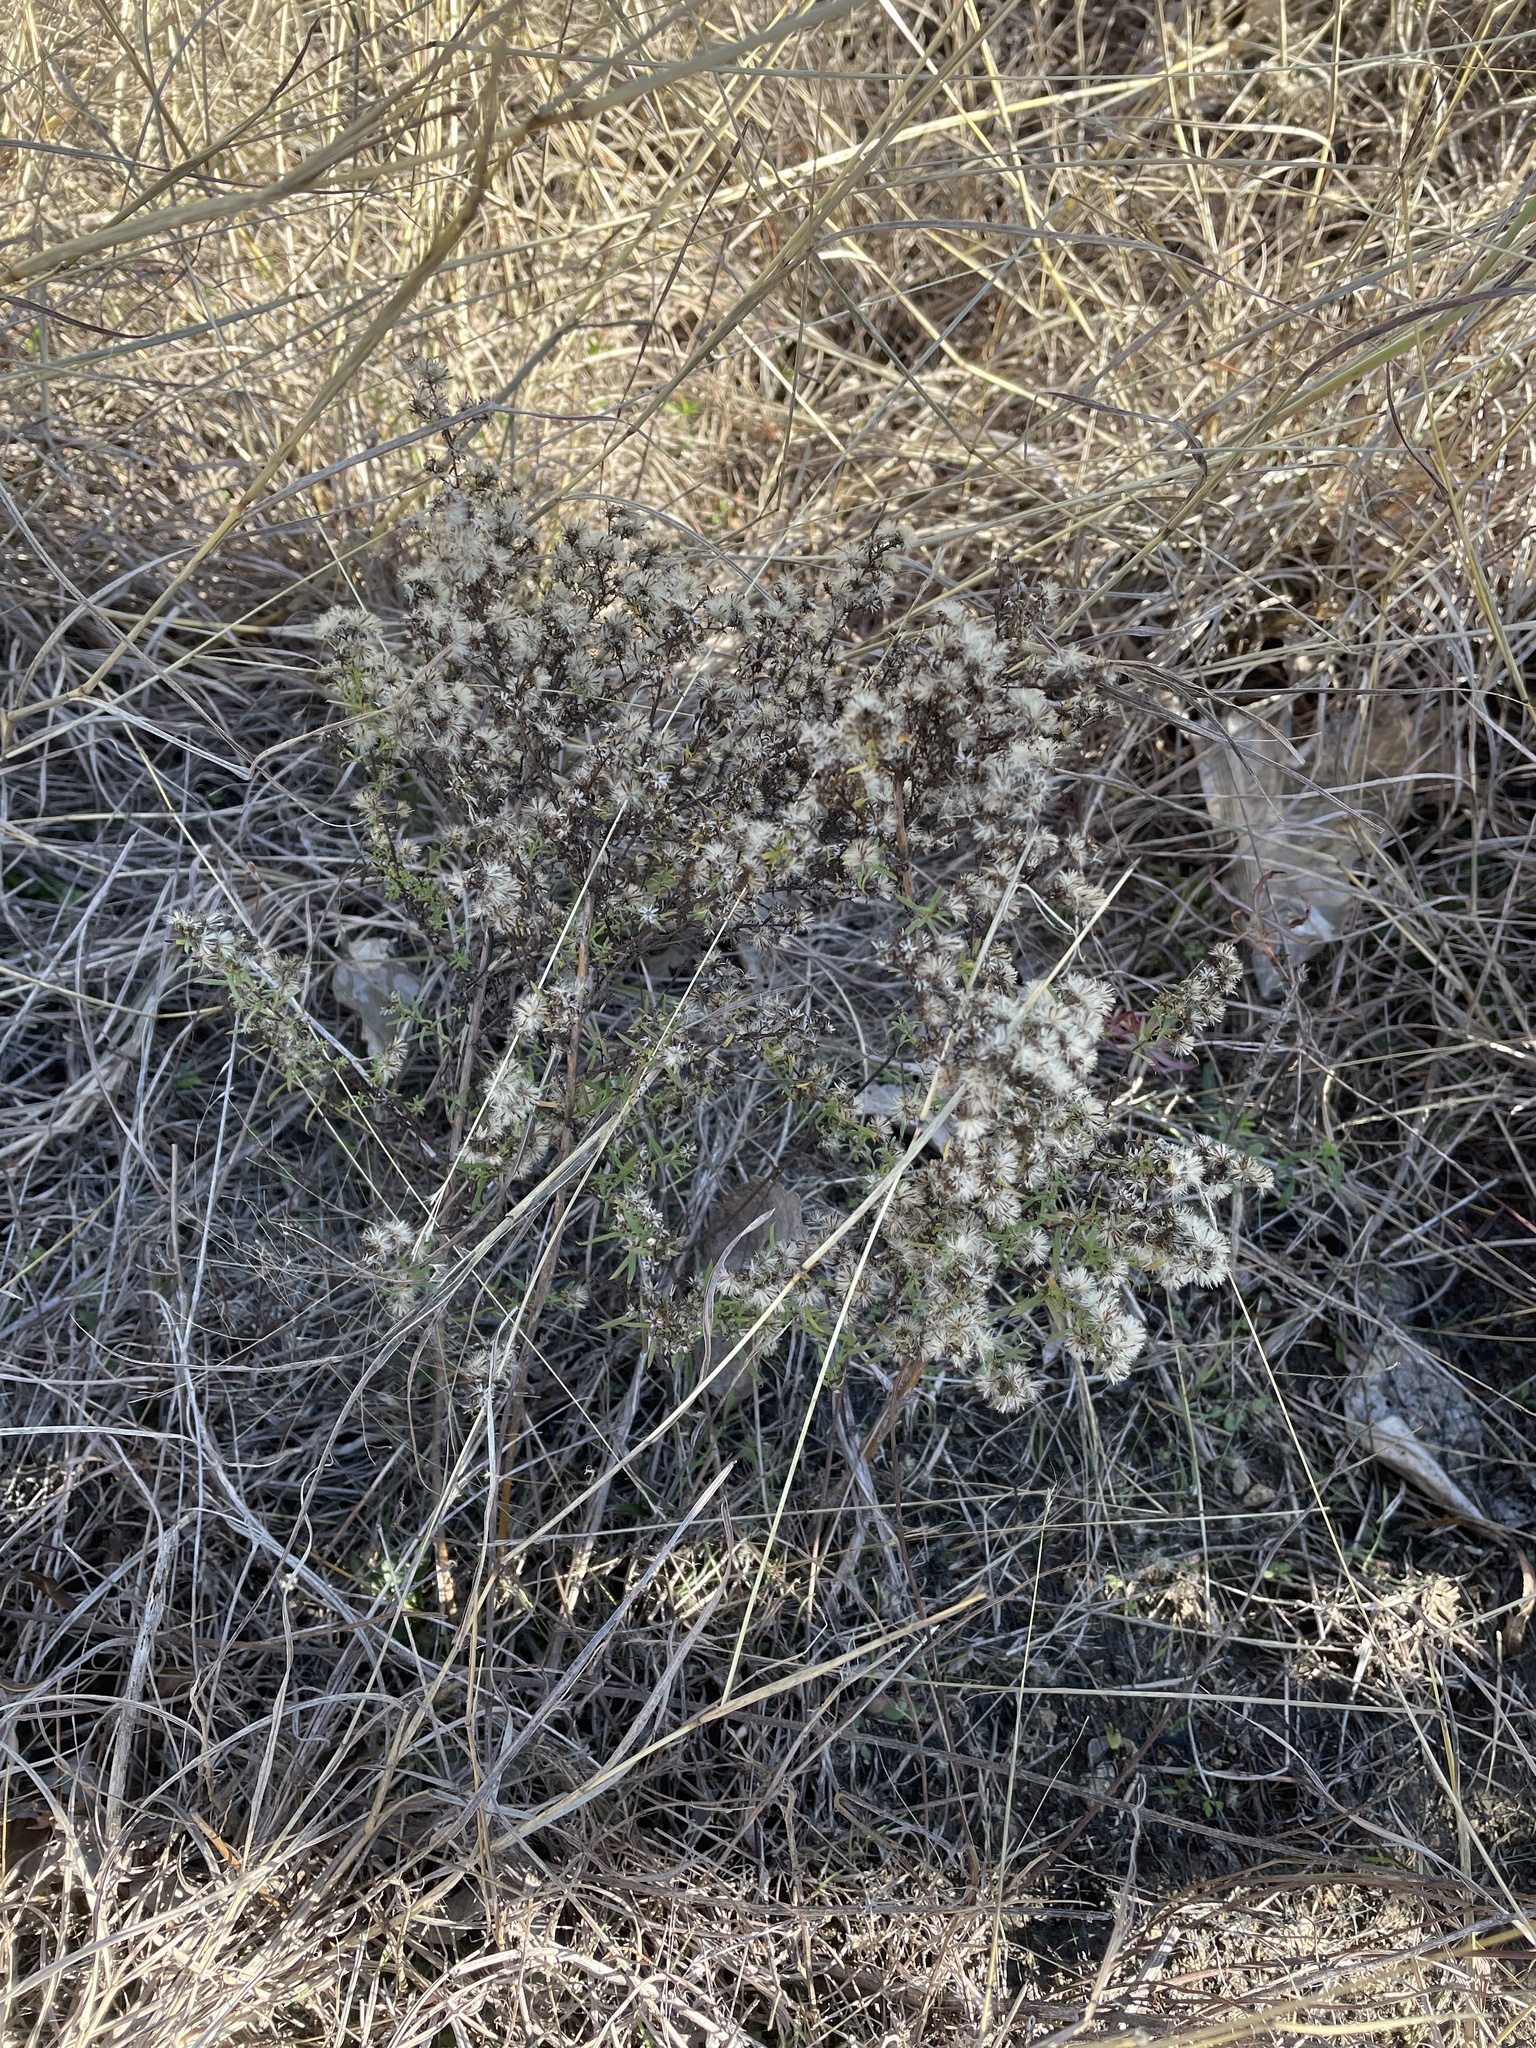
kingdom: Plantae
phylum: Tracheophyta
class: Magnoliopsida
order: Asterales
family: Asteraceae
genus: Symphyotrichum
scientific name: Symphyotrichum ericoides
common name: Heath aster
